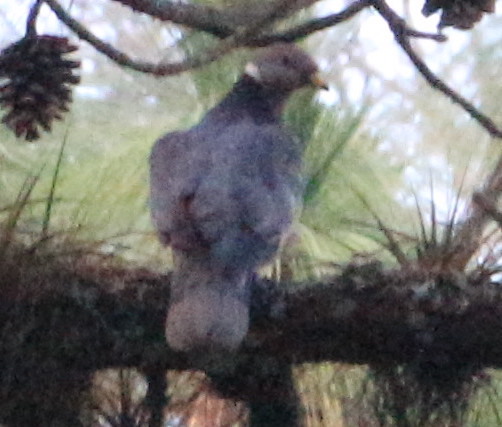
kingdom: Animalia
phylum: Chordata
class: Aves
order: Columbiformes
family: Columbidae
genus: Patagioenas
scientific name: Patagioenas fasciata
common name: Band-tailed pigeon
